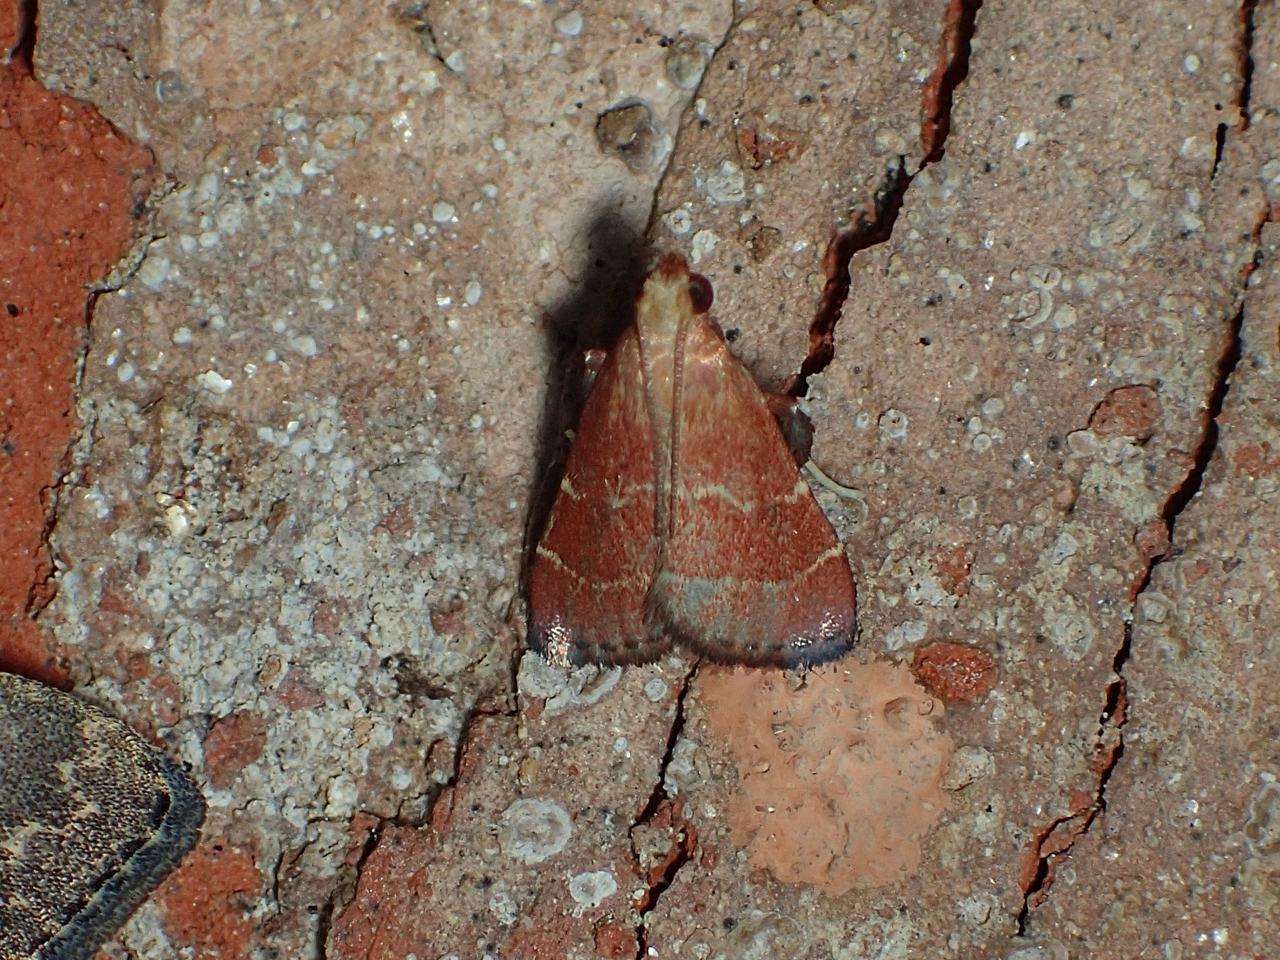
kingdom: Animalia
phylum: Arthropoda
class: Insecta
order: Lepidoptera
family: Pyralidae
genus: Arta
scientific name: Arta statalis
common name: Posturing arta moth
